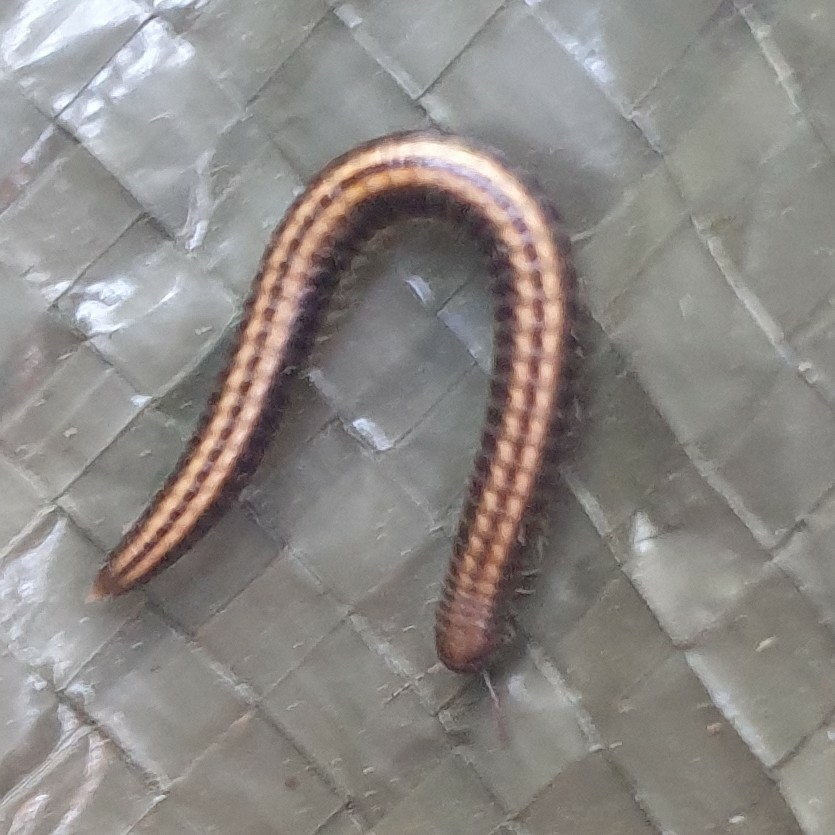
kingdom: Animalia
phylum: Arthropoda
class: Diplopoda
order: Julida
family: Julidae
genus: Ommatoiulus
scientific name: Ommatoiulus sabulosus
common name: Striped millipede
